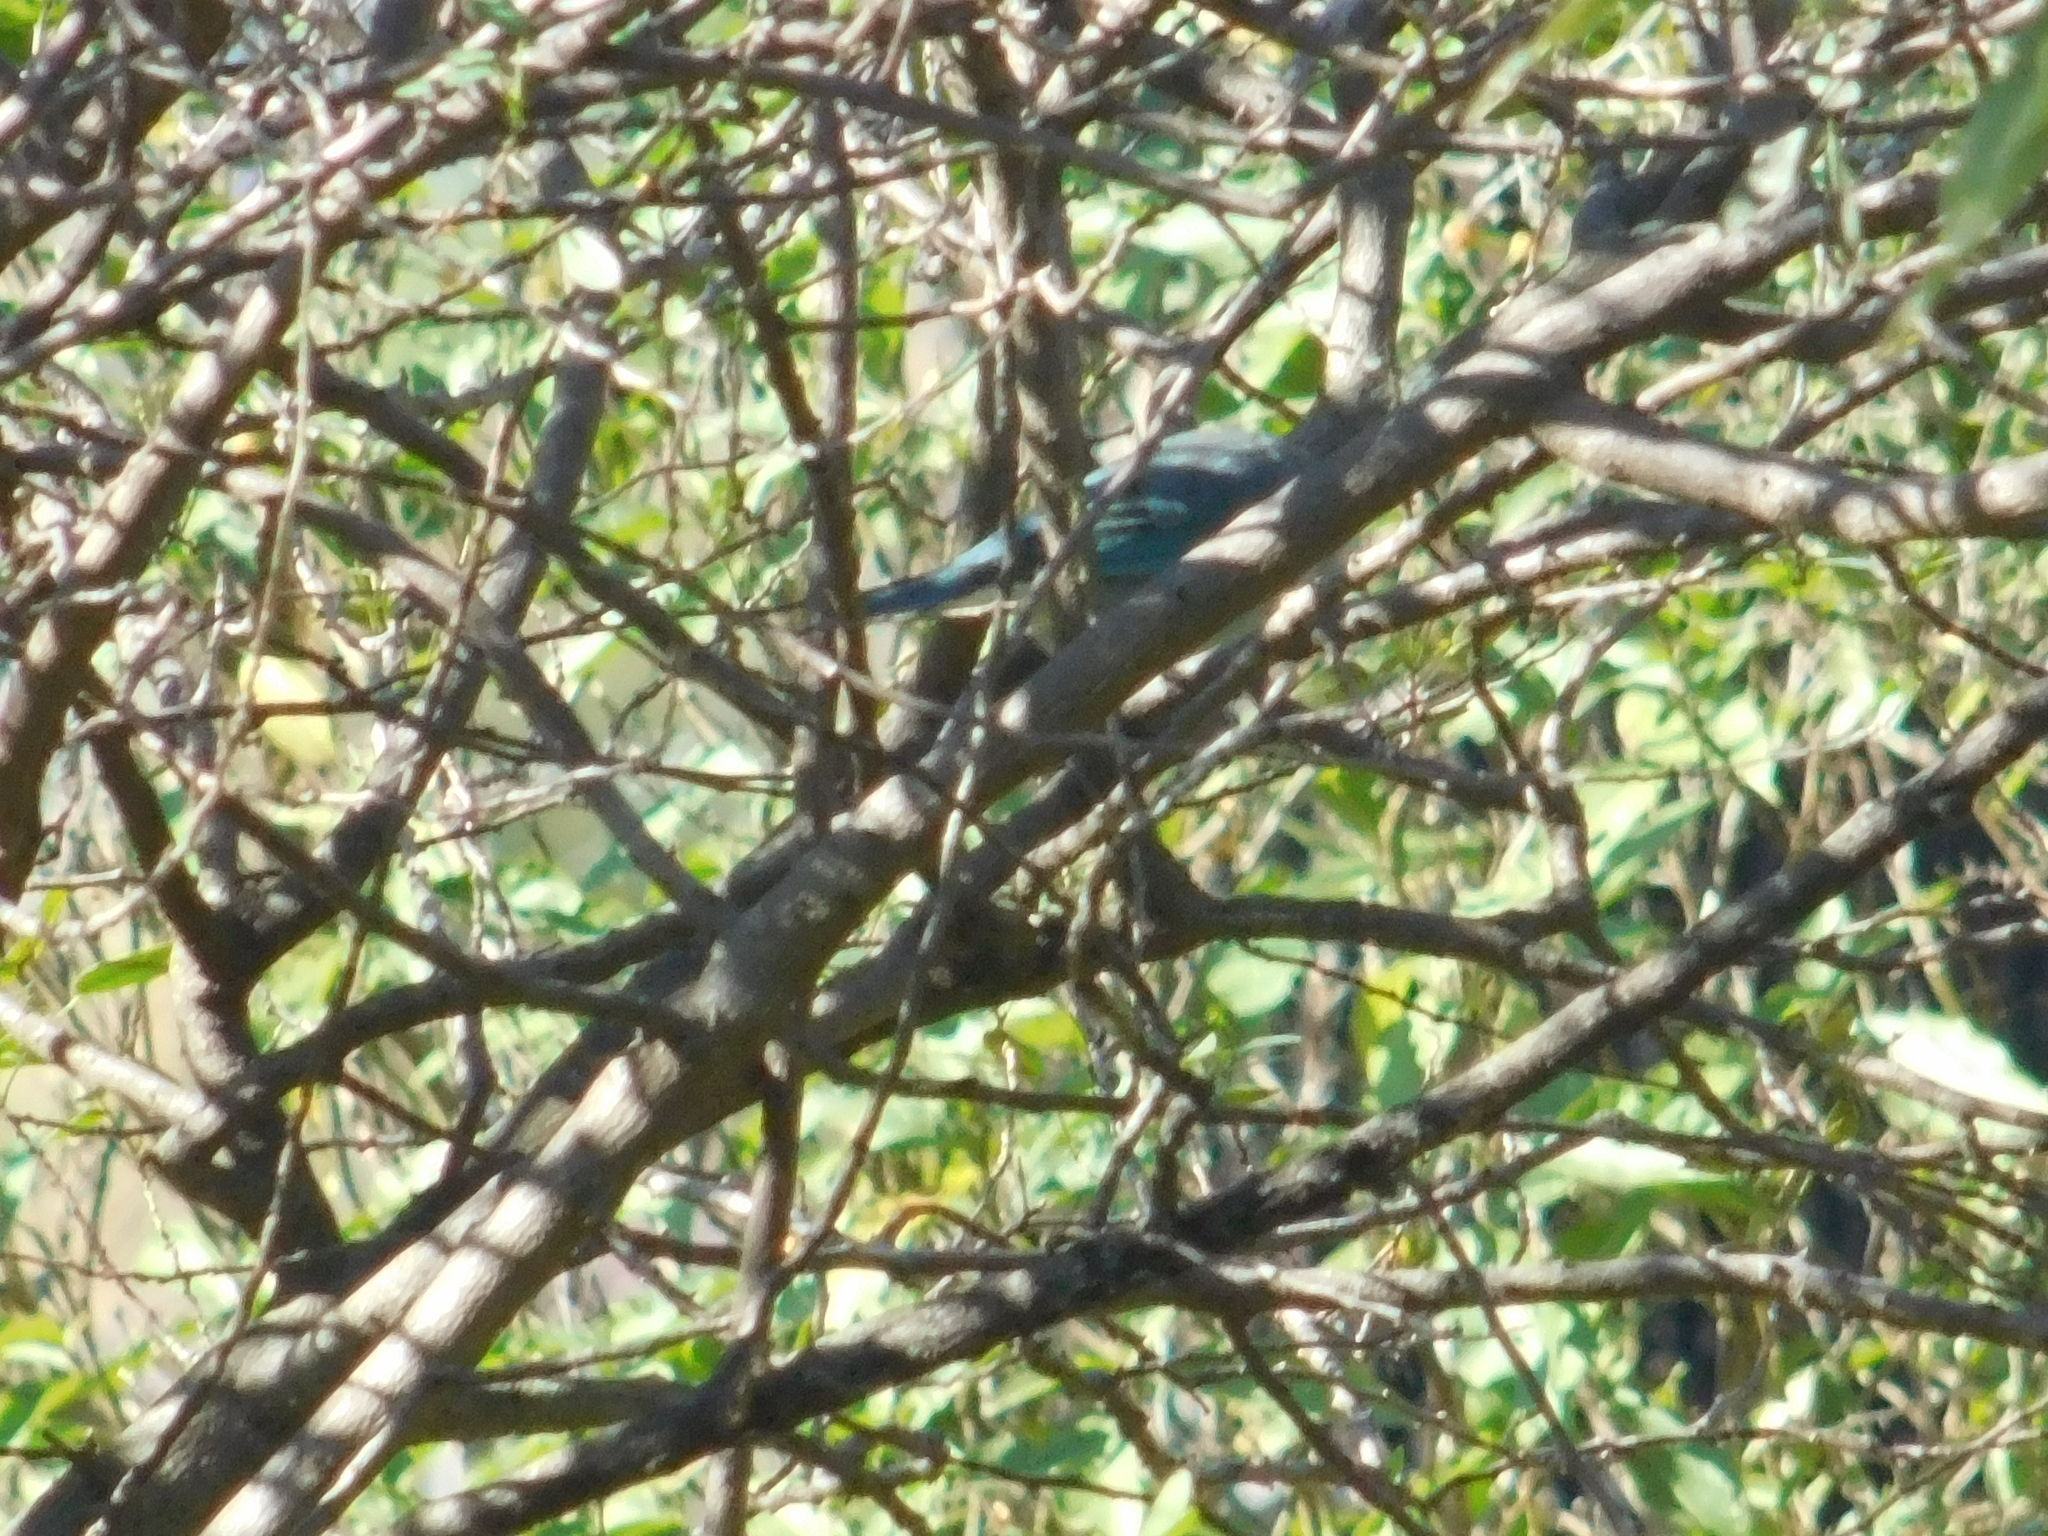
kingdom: Animalia
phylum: Chordata
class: Aves
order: Passeriformes
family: Thraupidae
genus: Thraupis
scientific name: Thraupis sayaca
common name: Sayaca tanager
